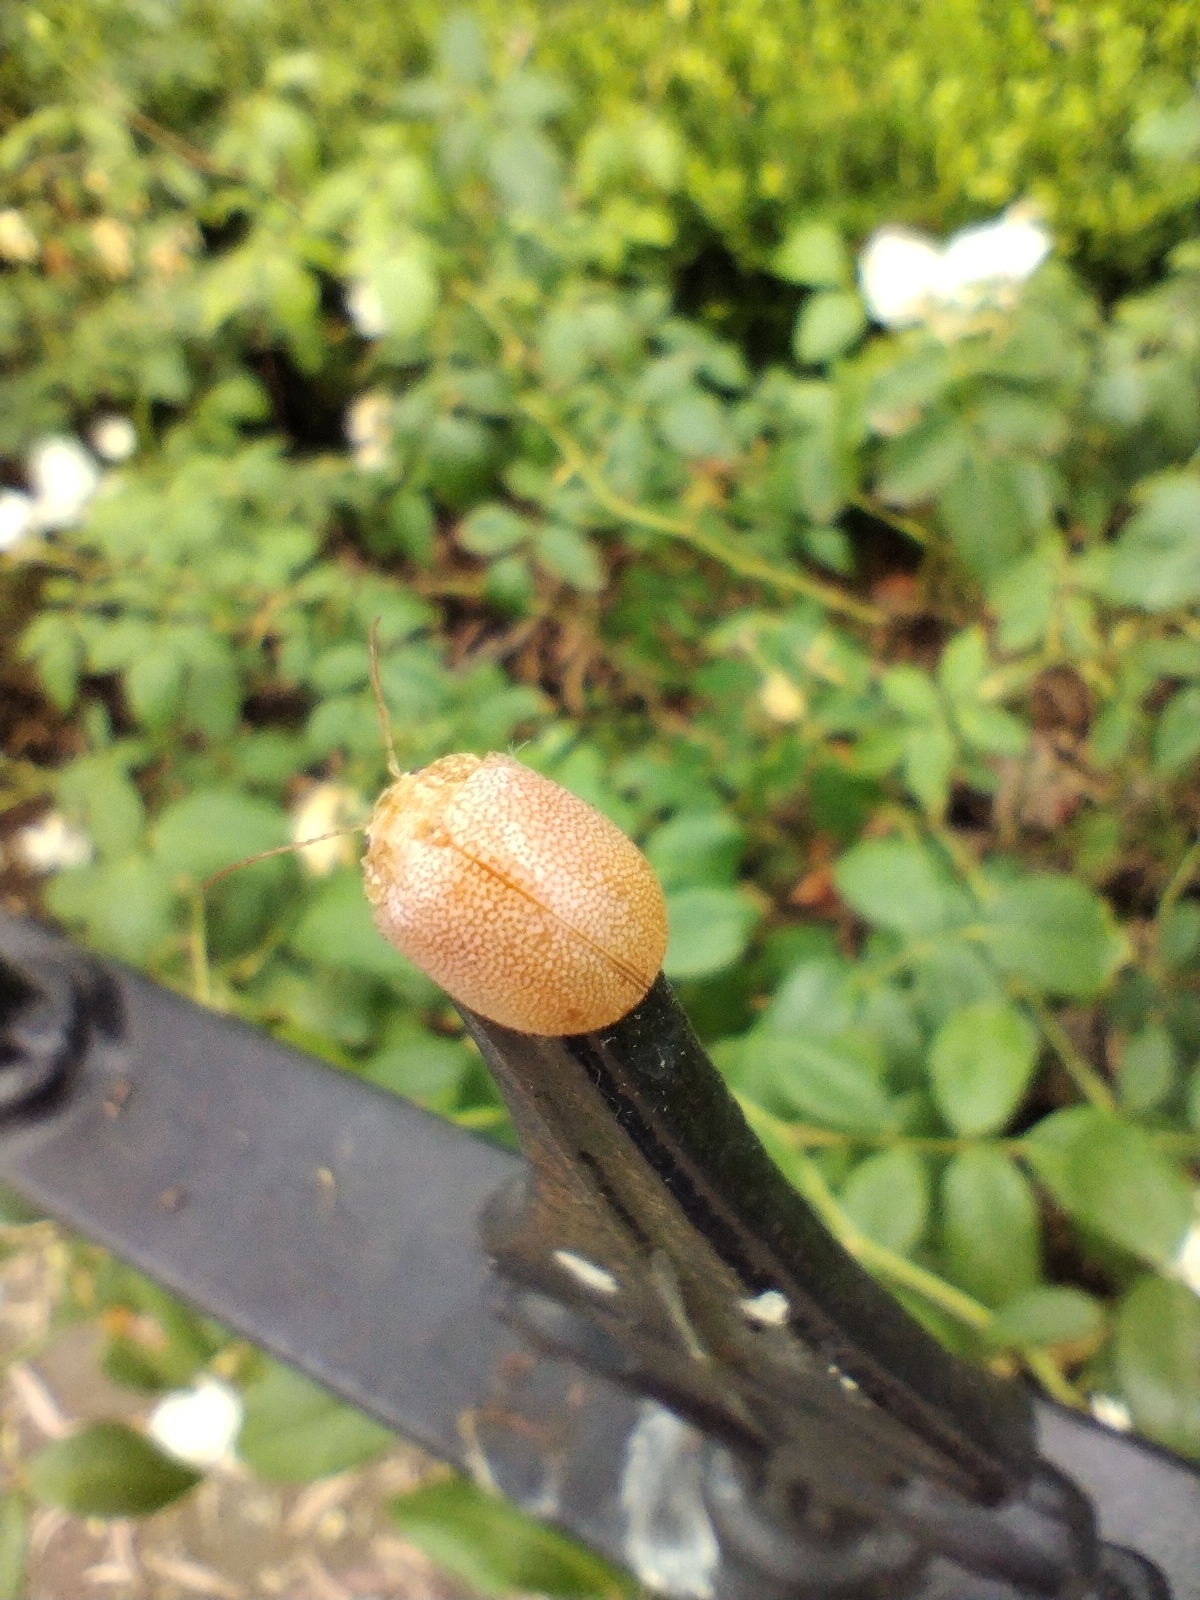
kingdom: Animalia
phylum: Arthropoda
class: Insecta
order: Coleoptera
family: Chrysomelidae
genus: Paropsis
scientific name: Paropsis
